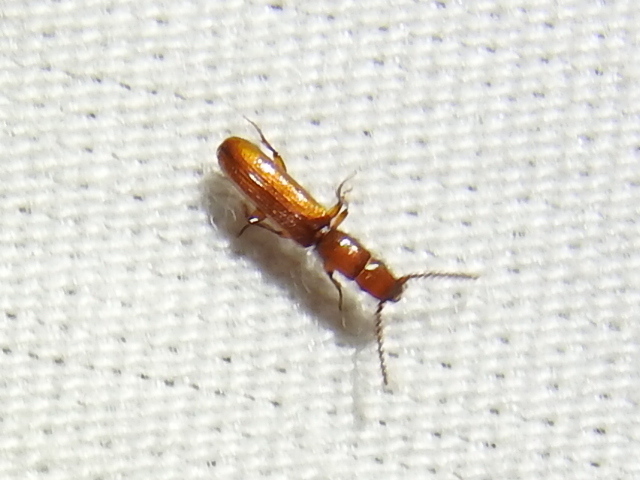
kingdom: Animalia
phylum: Arthropoda
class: Insecta
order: Coleoptera
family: Passandridae
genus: Taphroscelidia
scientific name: Taphroscelidia linearis
